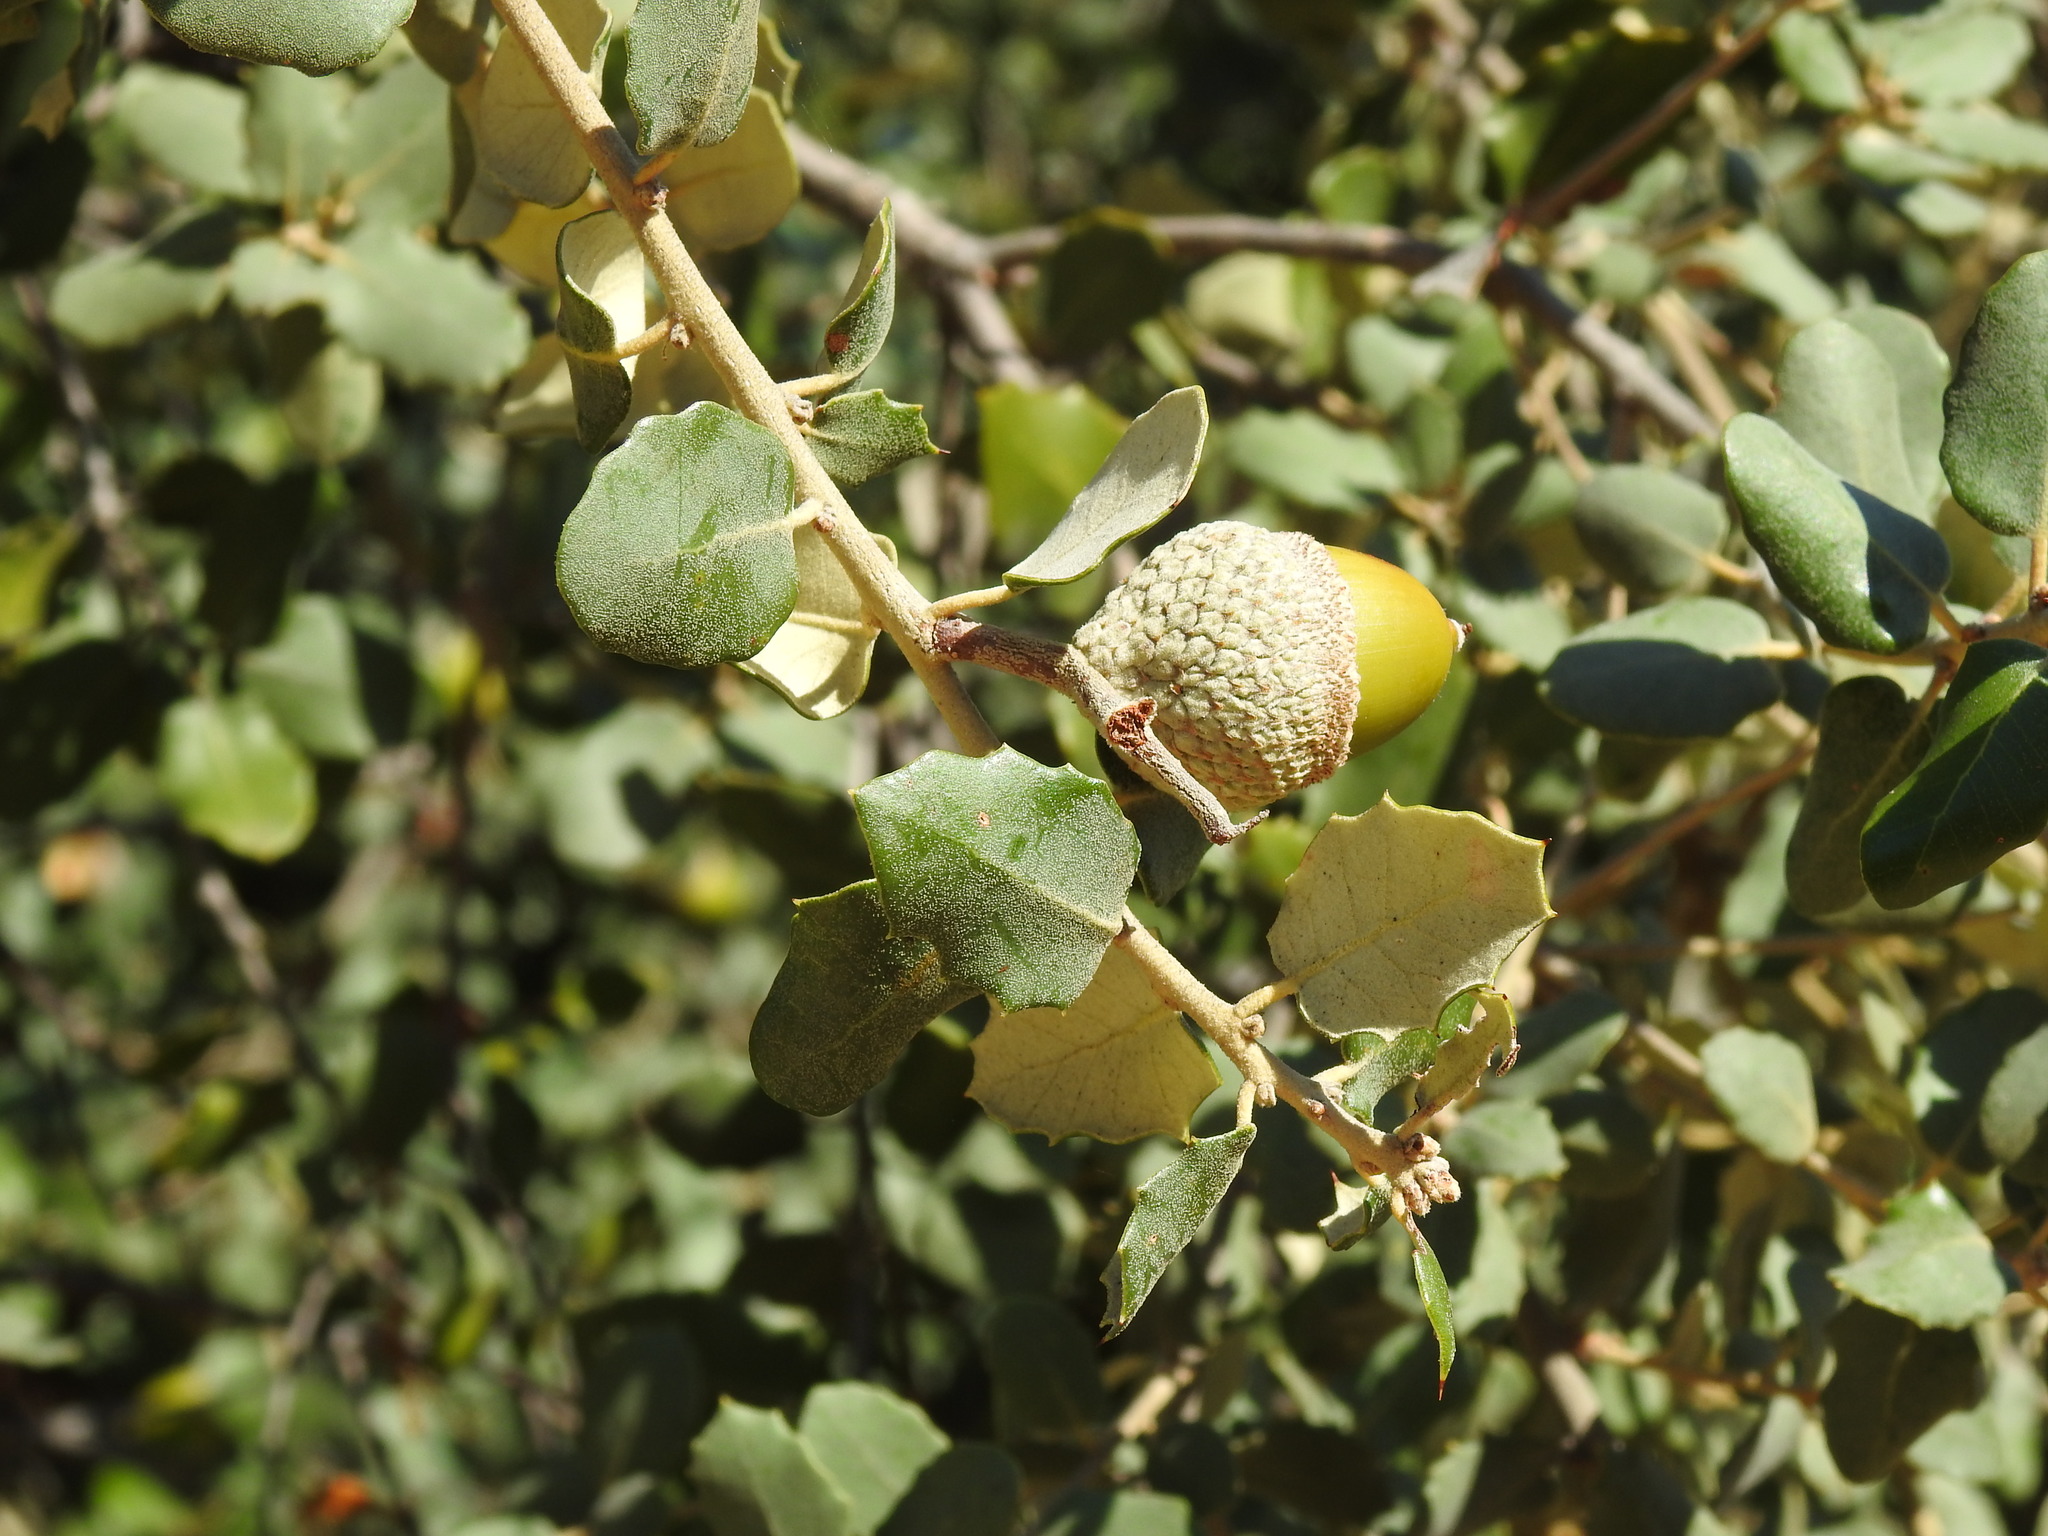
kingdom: Plantae
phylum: Tracheophyta
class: Magnoliopsida
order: Fagales
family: Fagaceae
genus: Quercus
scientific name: Quercus rotundifolia
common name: Holm oak
